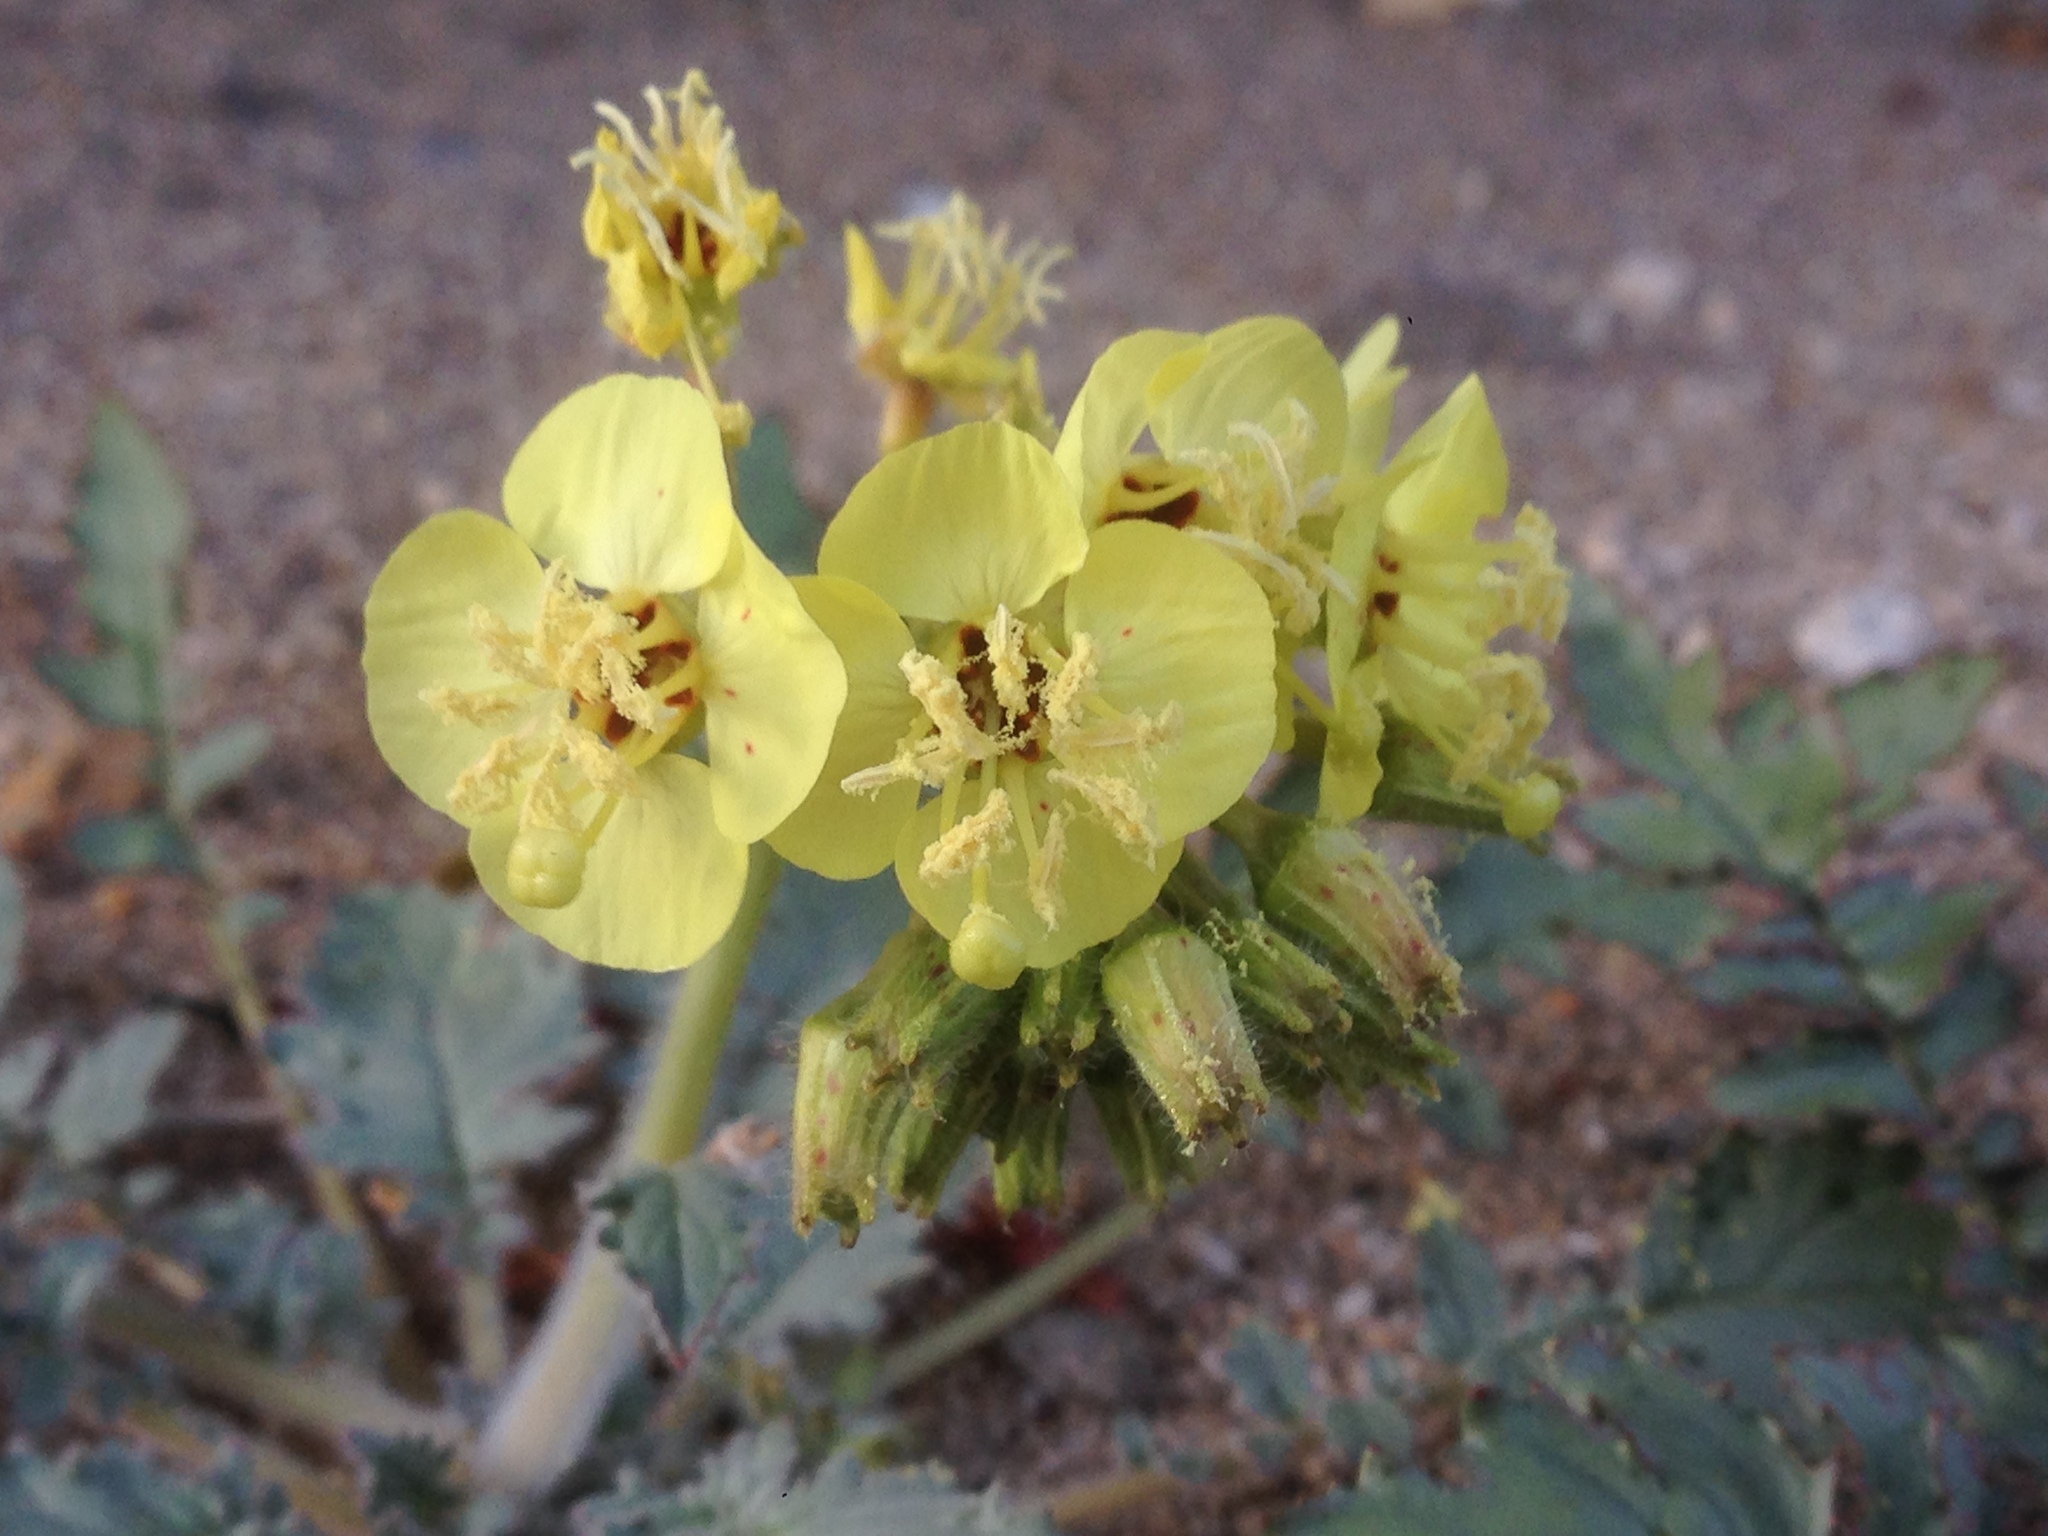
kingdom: Plantae
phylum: Tracheophyta
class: Magnoliopsida
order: Myrtales
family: Onagraceae
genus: Chylismia
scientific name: Chylismia claviformis
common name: Browneyes
